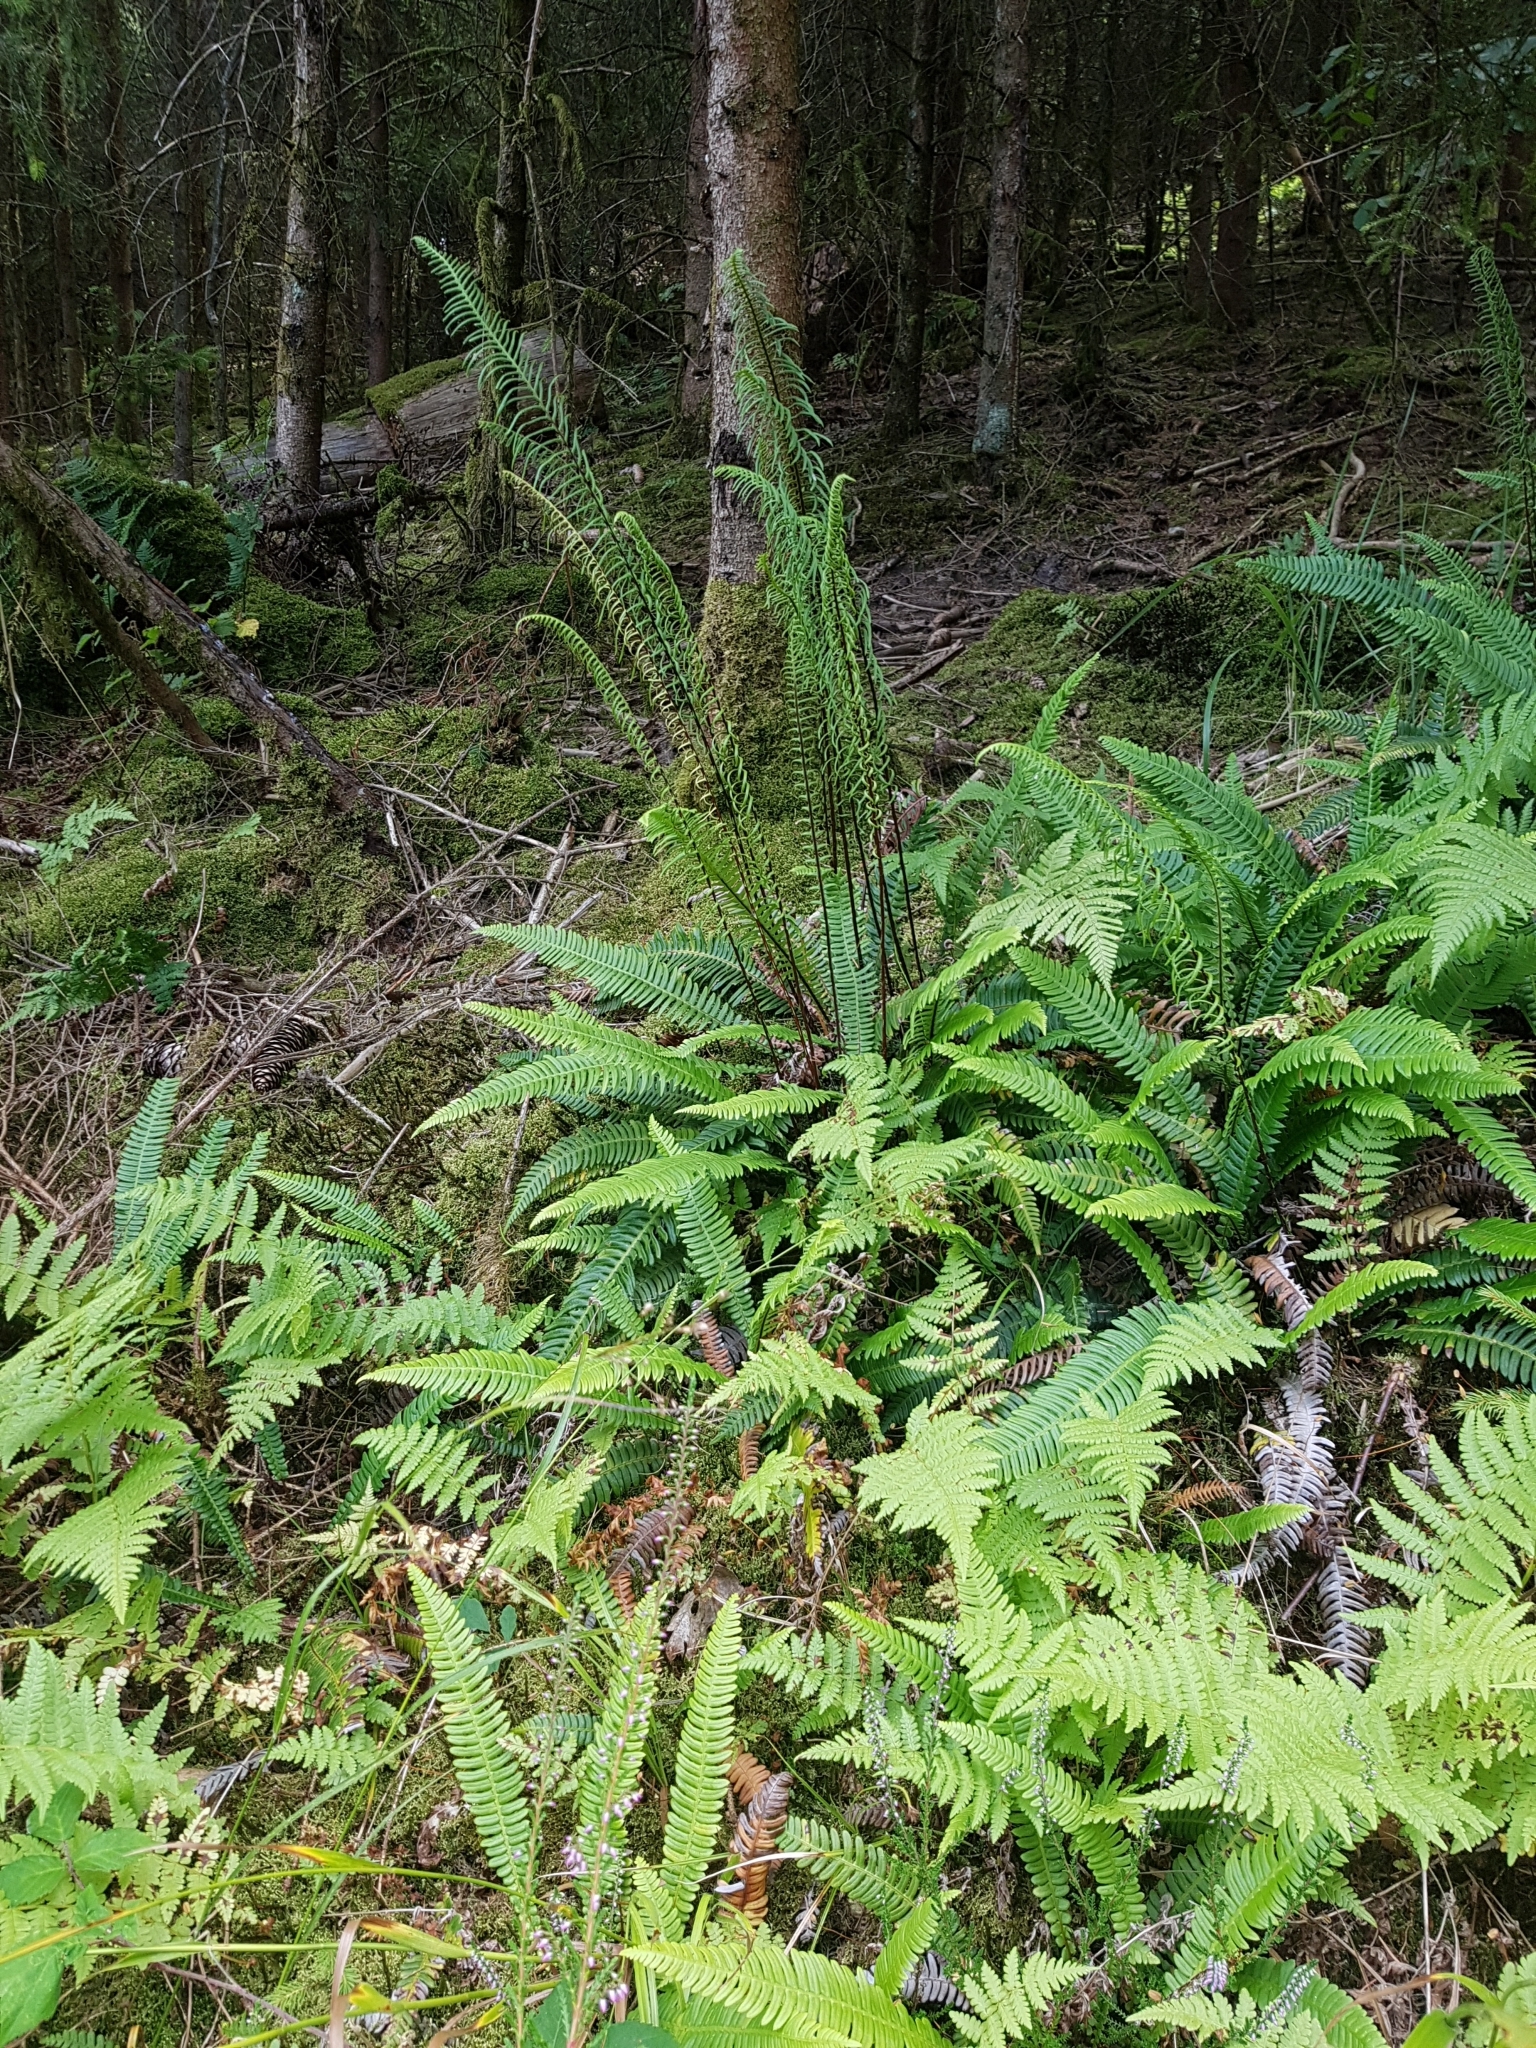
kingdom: Plantae
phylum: Tracheophyta
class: Polypodiopsida
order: Polypodiales
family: Blechnaceae
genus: Struthiopteris
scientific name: Struthiopteris spicant
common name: Deer fern
